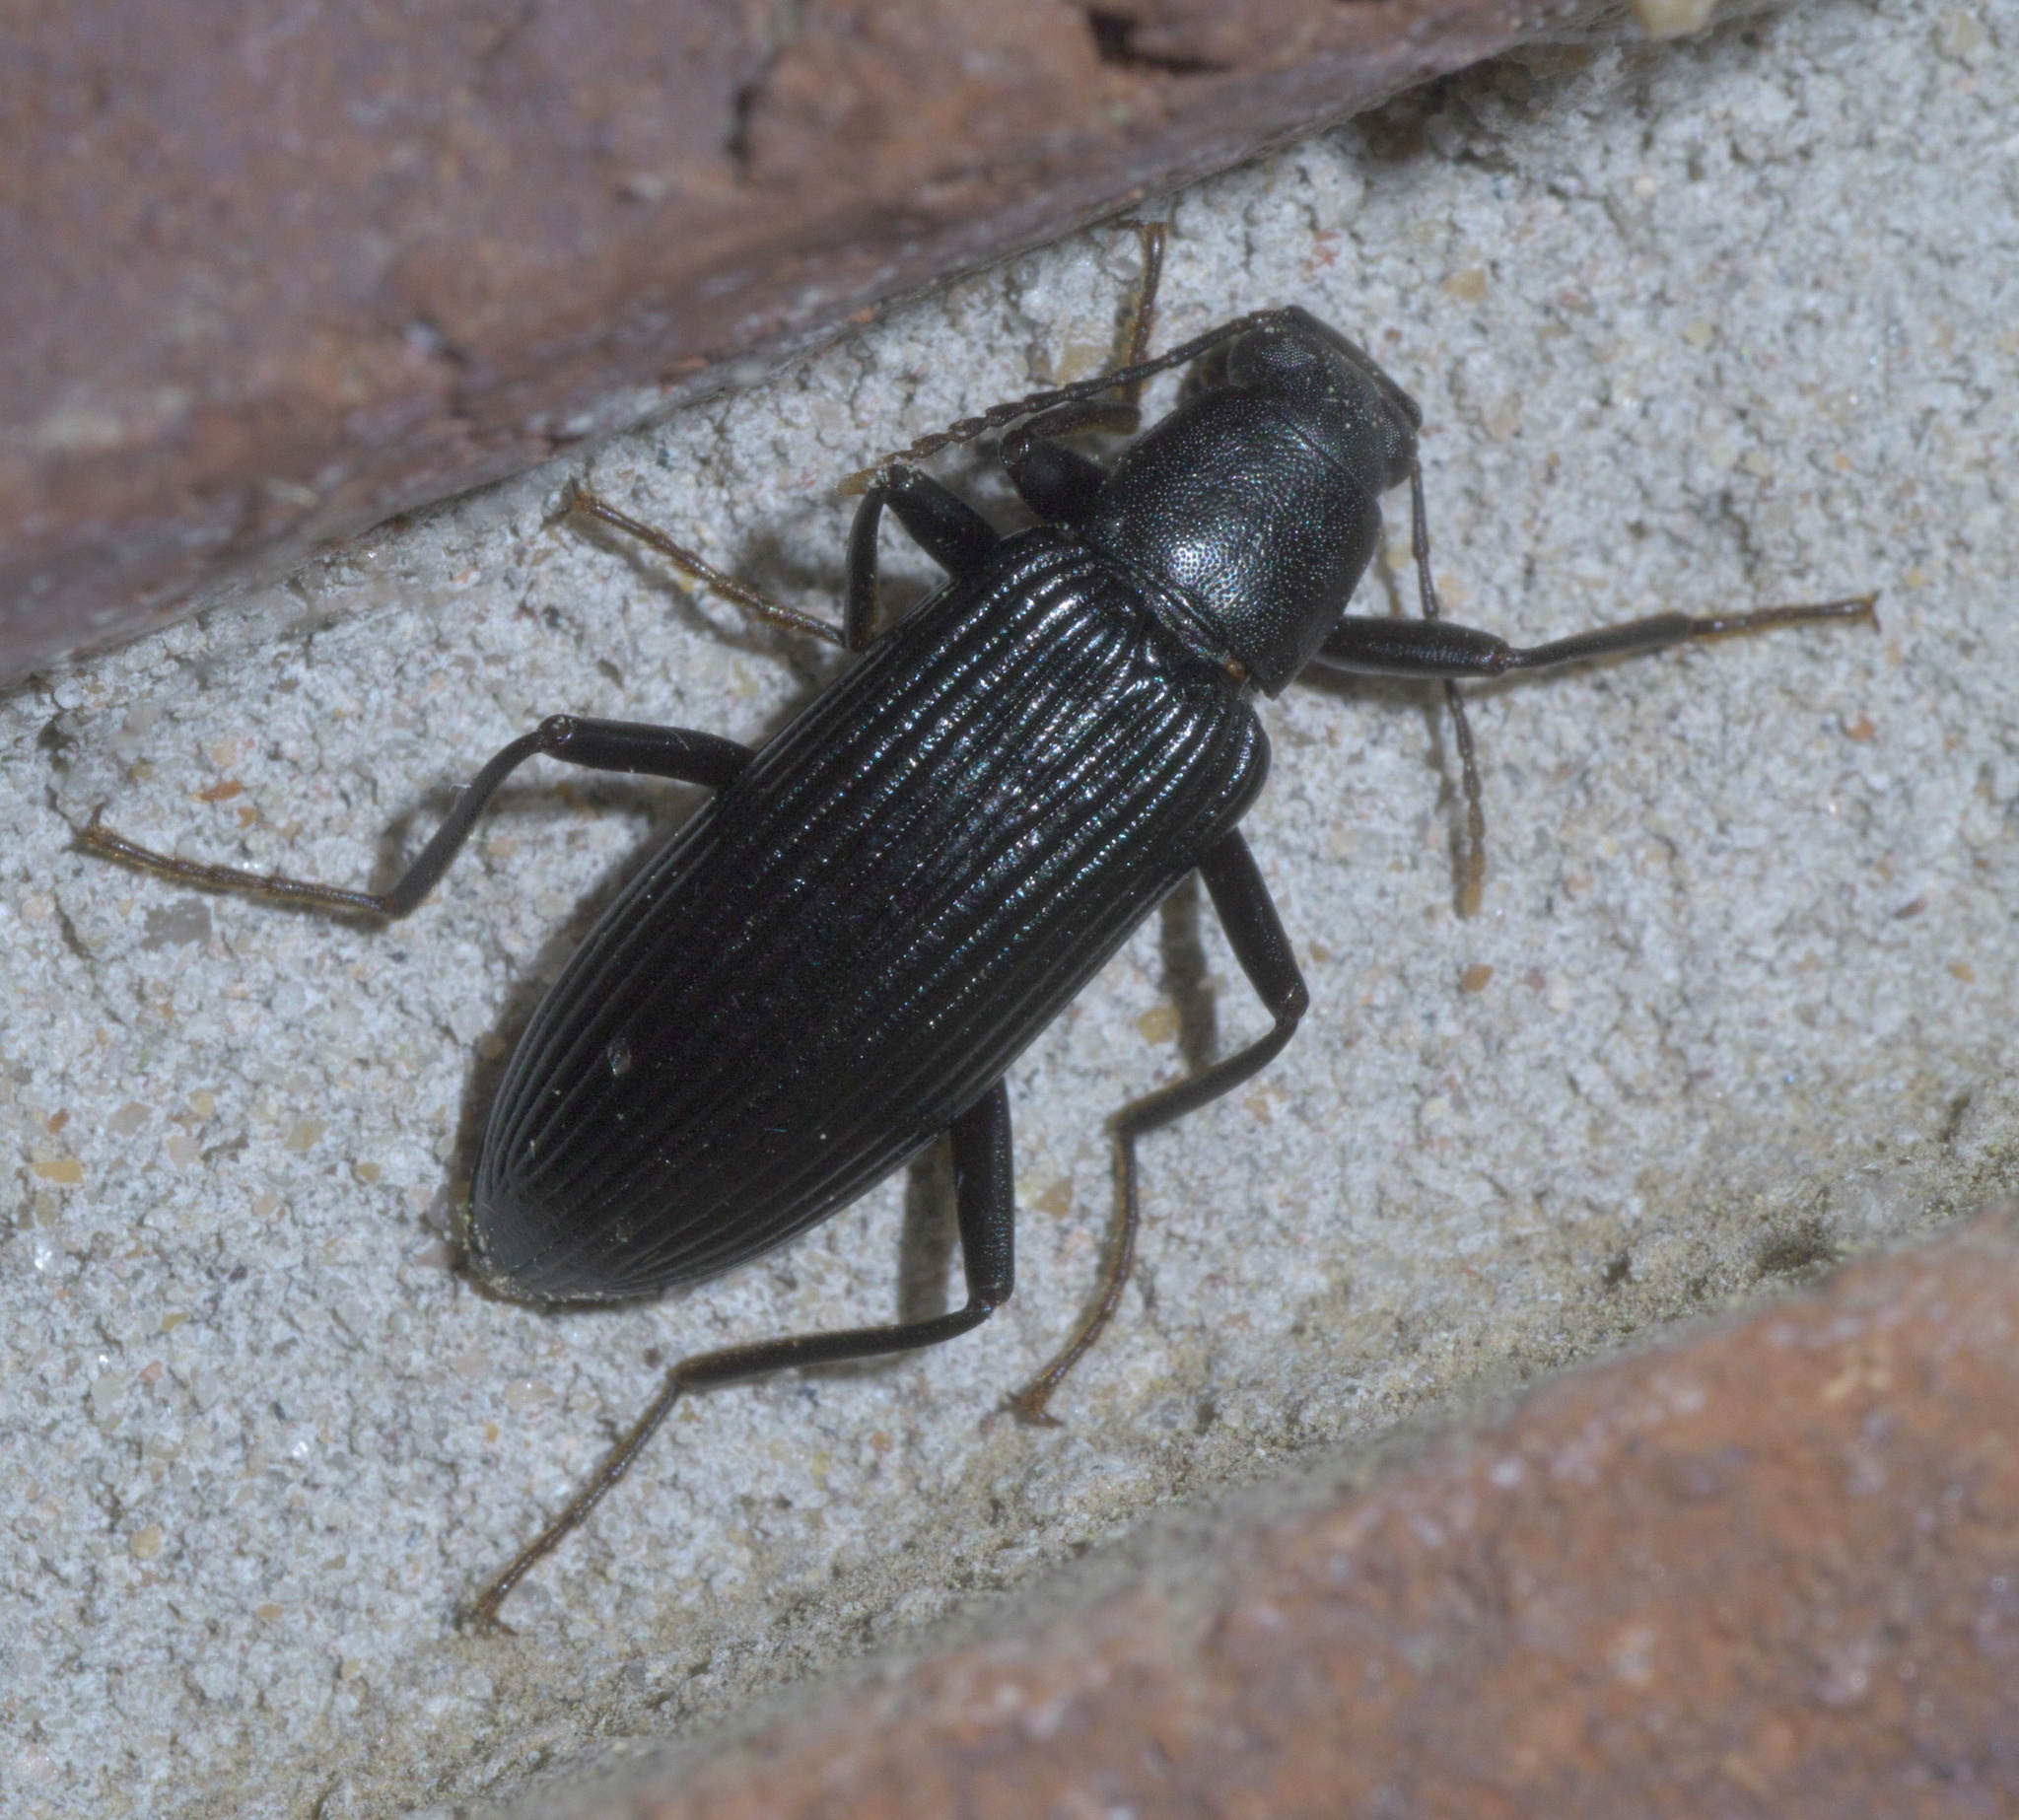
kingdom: Animalia
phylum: Arthropoda
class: Insecta
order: Coleoptera
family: Tenebrionidae
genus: Strongylium
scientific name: Strongylium tenuicolle
